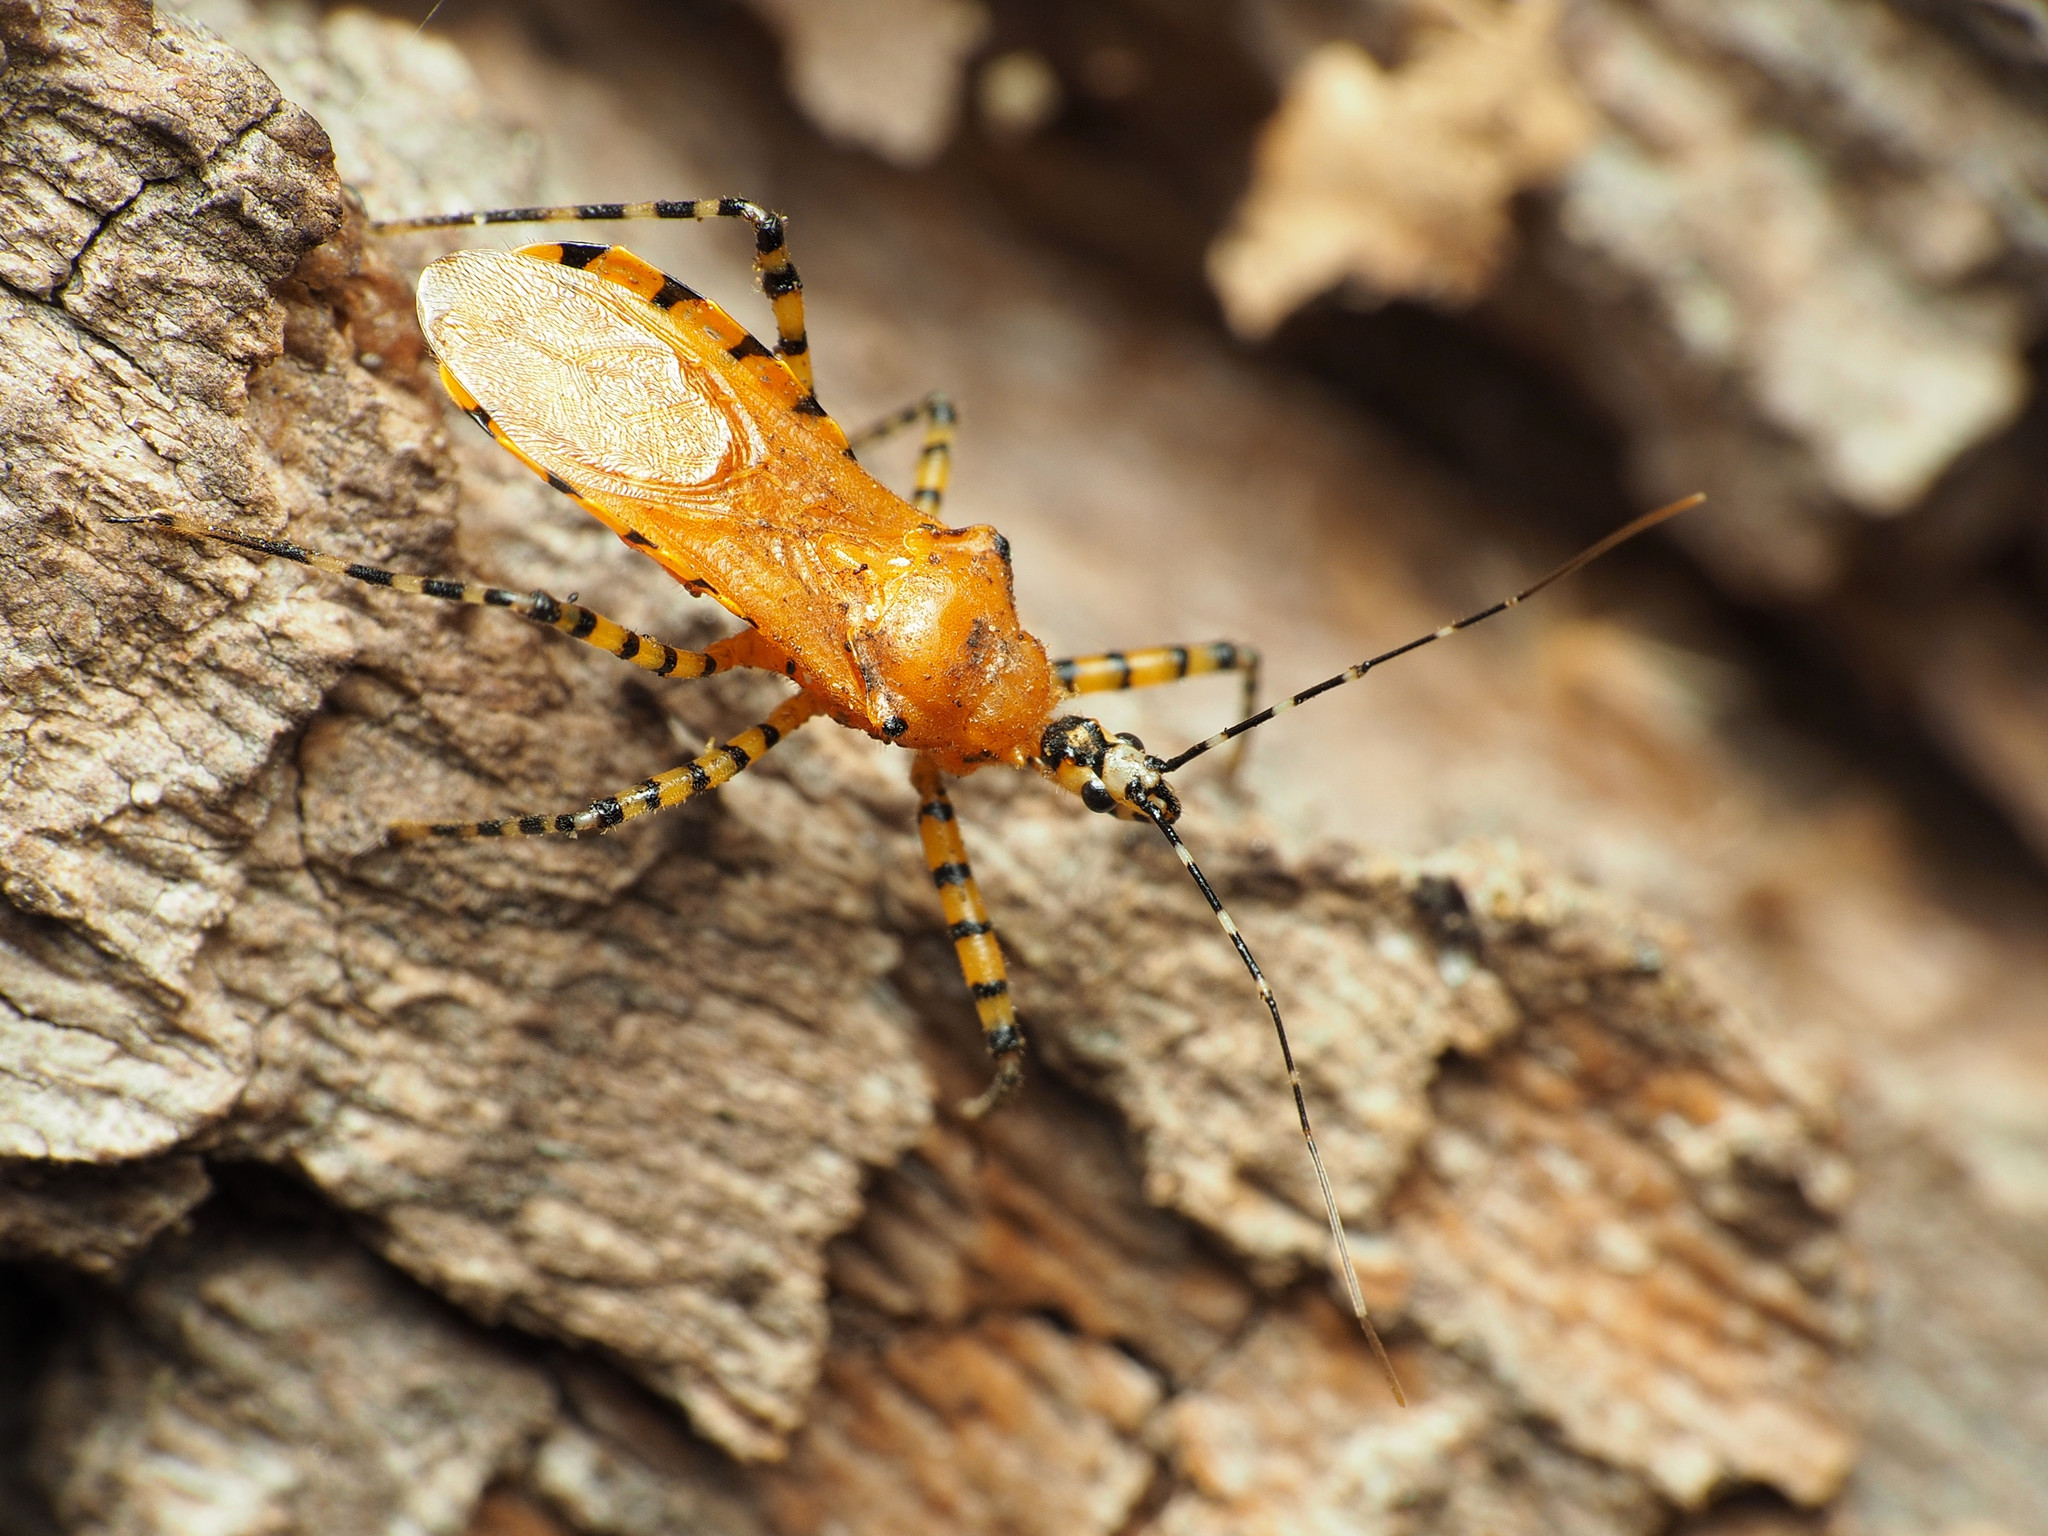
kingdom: Animalia
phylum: Arthropoda
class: Insecta
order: Hemiptera
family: Reduviidae
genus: Pselliopus
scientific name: Pselliopus barberi
